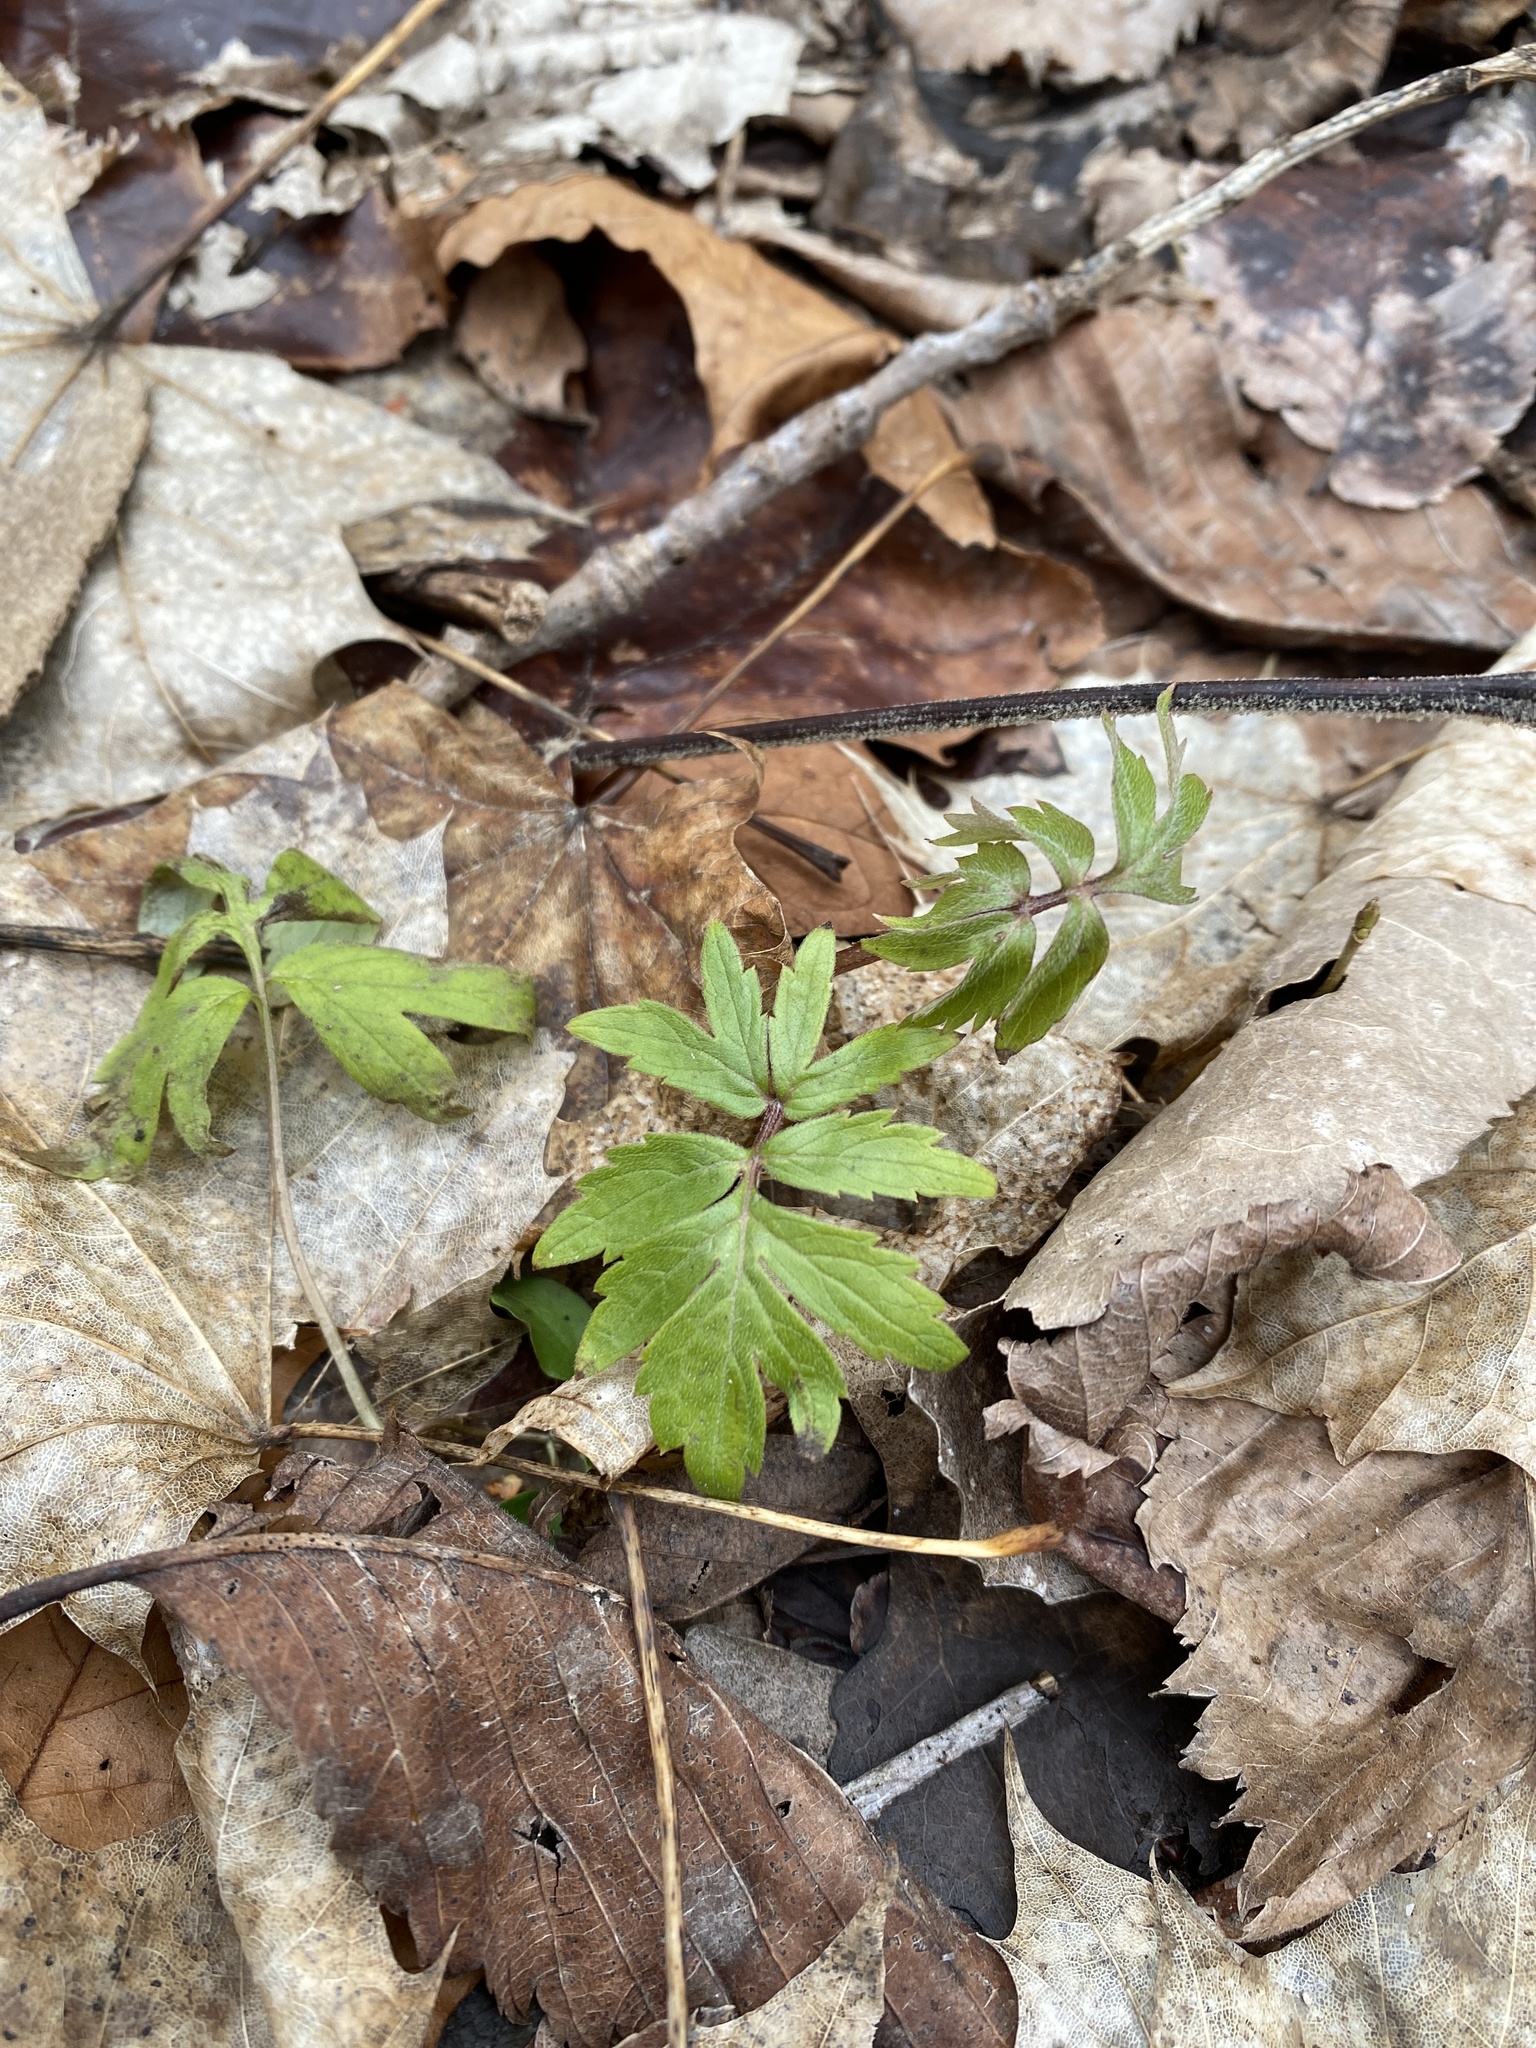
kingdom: Plantae
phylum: Tracheophyta
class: Magnoliopsida
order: Boraginales
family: Hydrophyllaceae
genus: Hydrophyllum
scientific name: Hydrophyllum virginianum
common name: Virginia waterleaf
